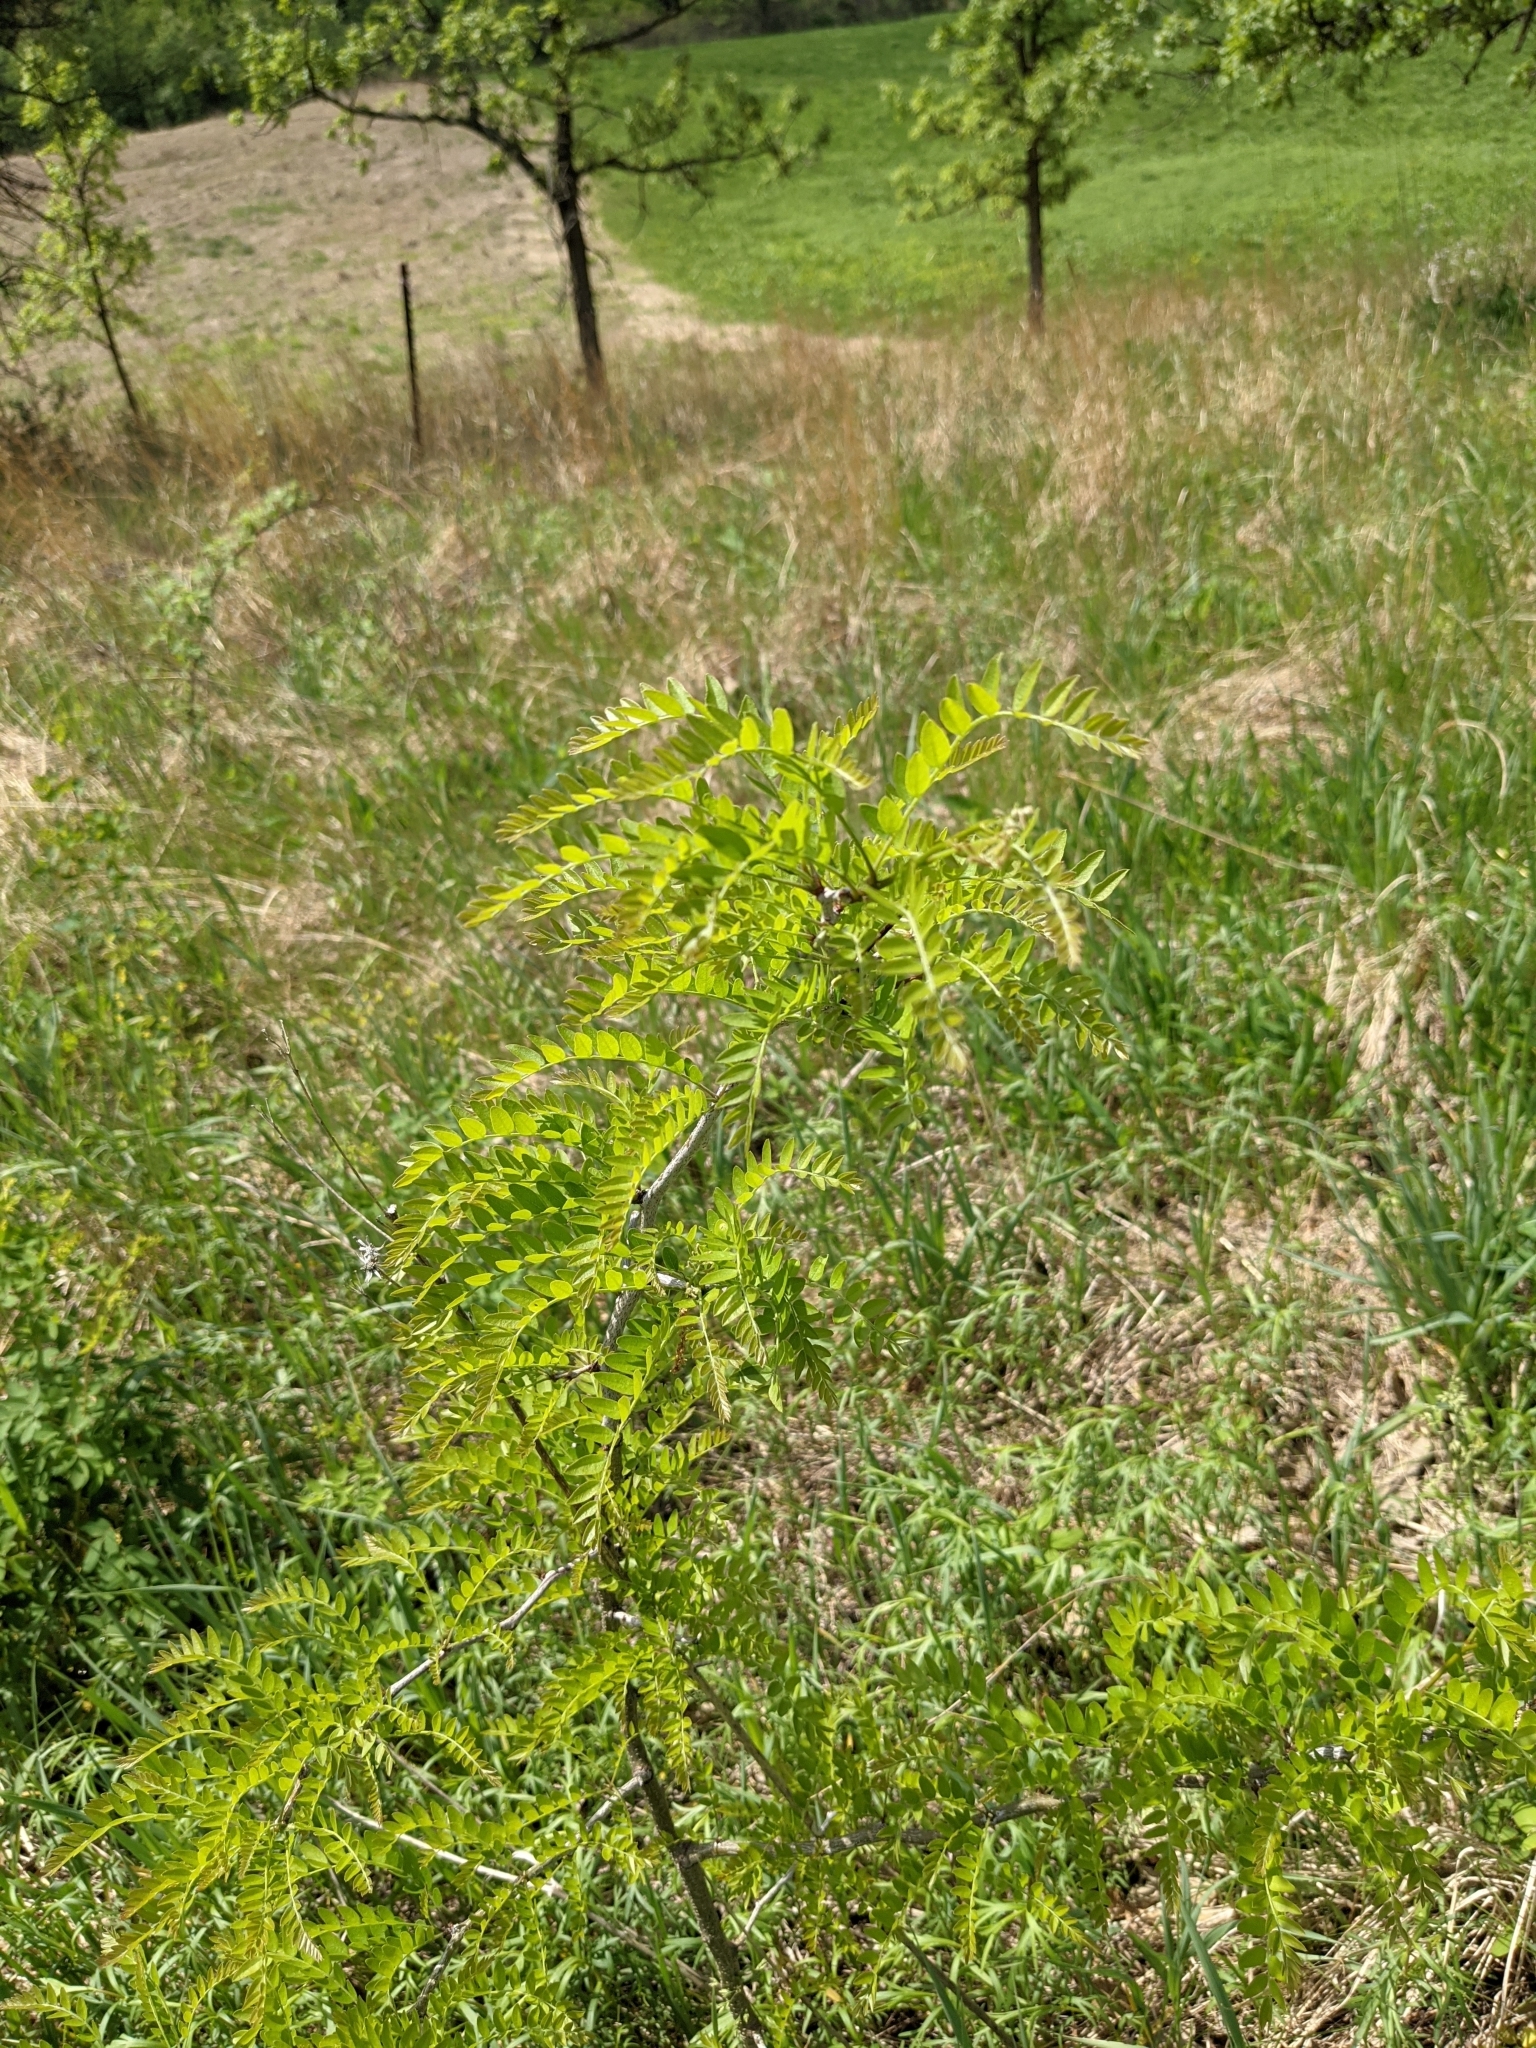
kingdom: Plantae
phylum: Tracheophyta
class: Magnoliopsida
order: Fabales
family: Fabaceae
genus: Gleditsia
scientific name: Gleditsia triacanthos
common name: Common honeylocust
